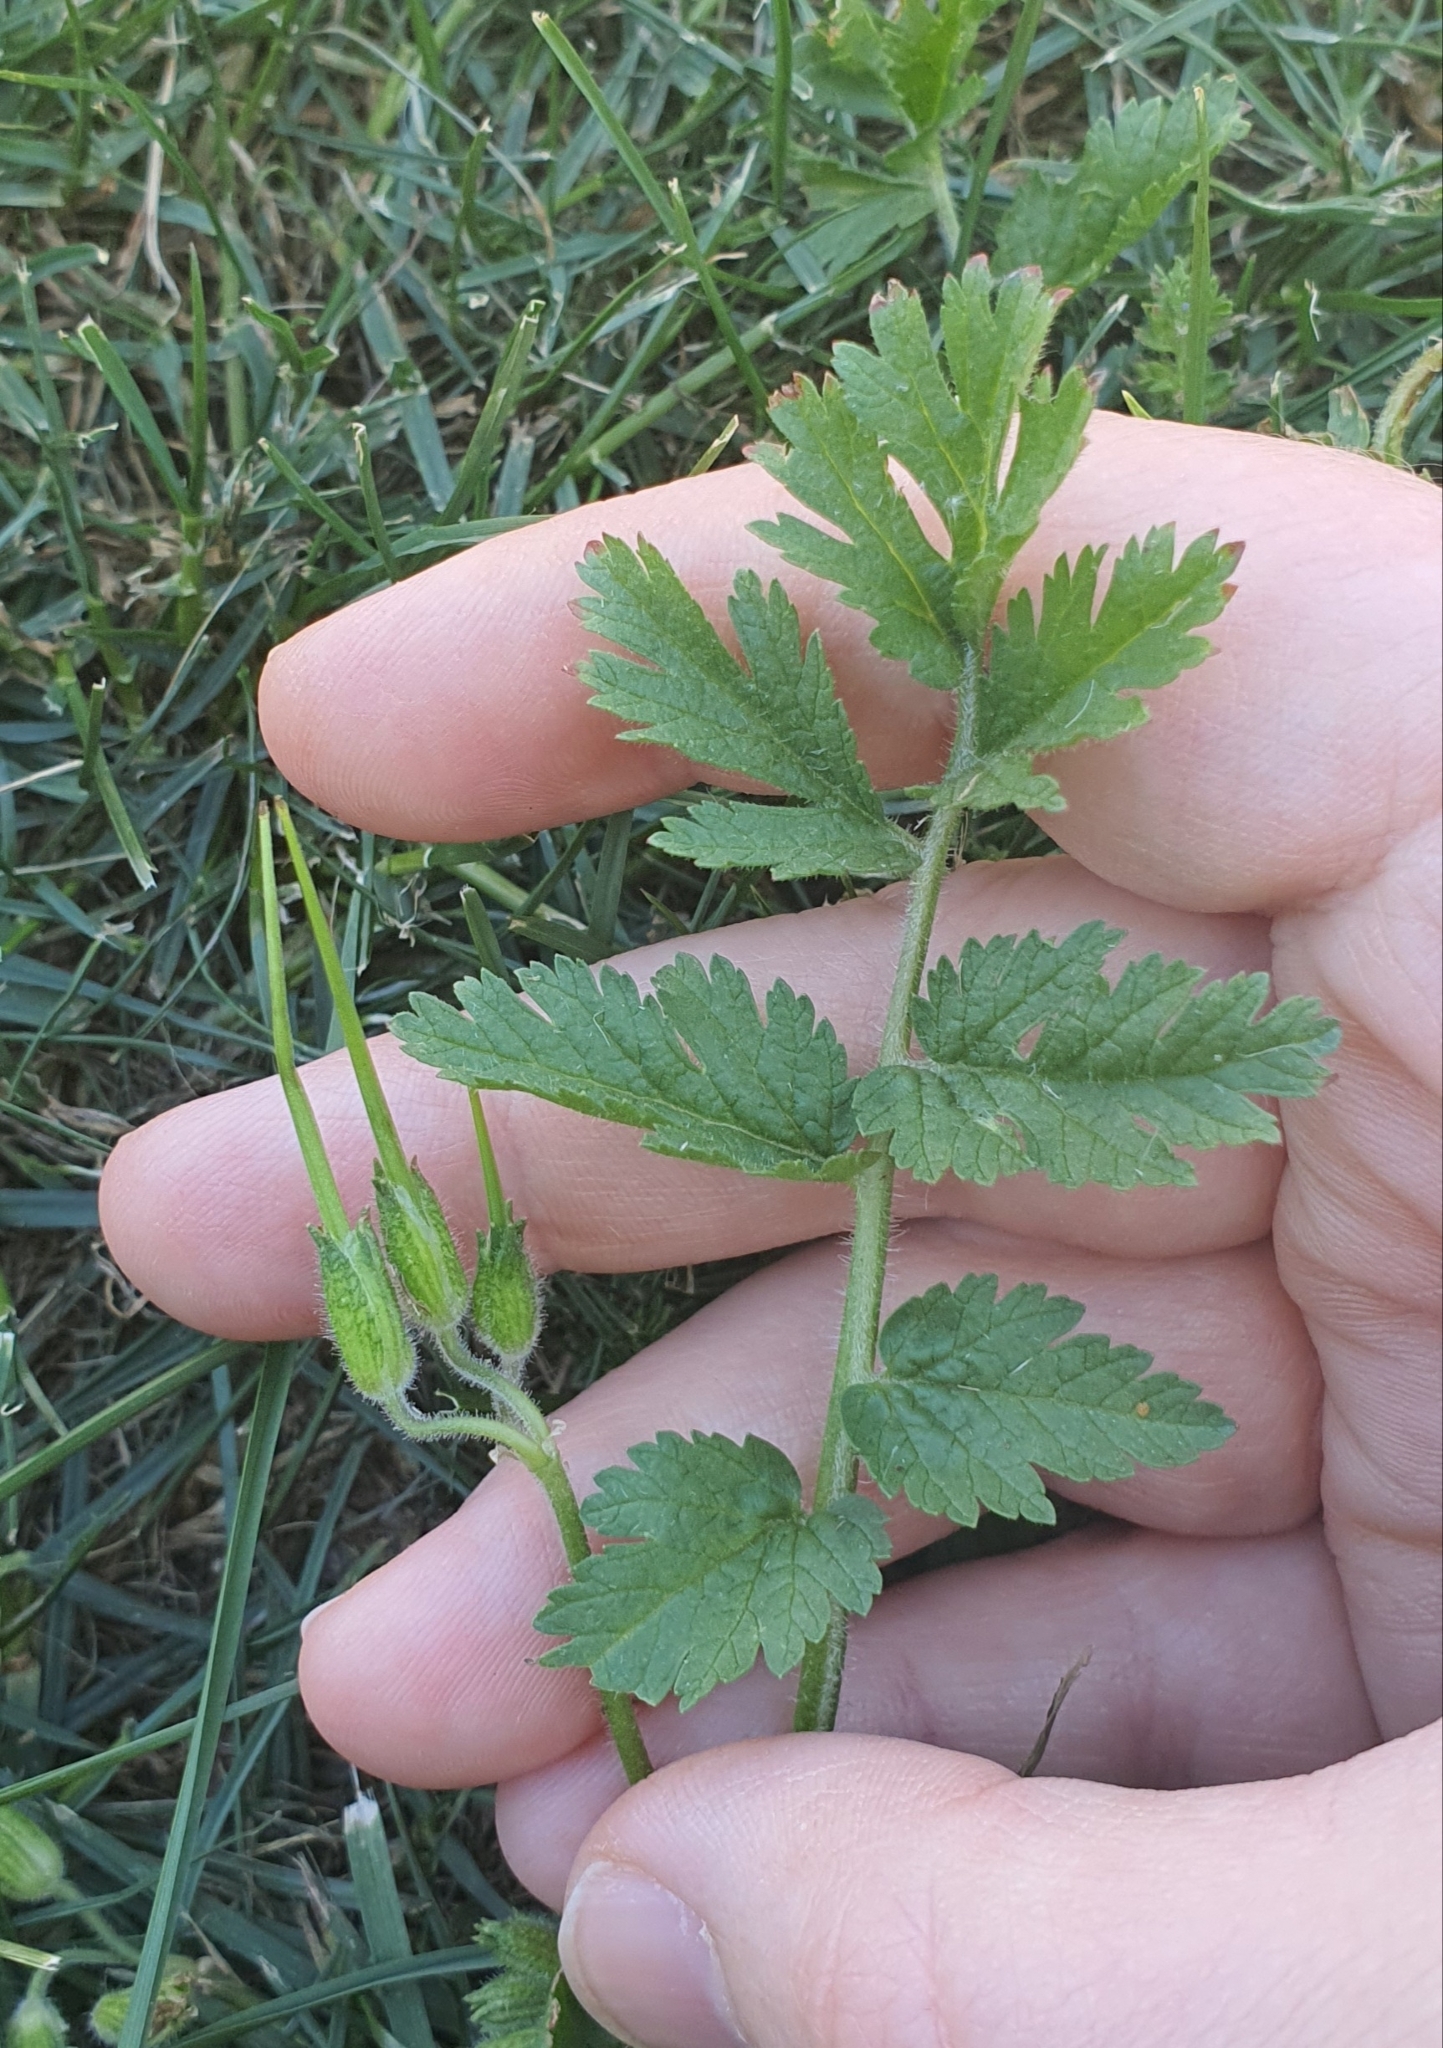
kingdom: Plantae
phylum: Tracheophyta
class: Magnoliopsida
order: Geraniales
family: Geraniaceae
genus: Erodium
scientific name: Erodium moschatum
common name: Musk stork's-bill
